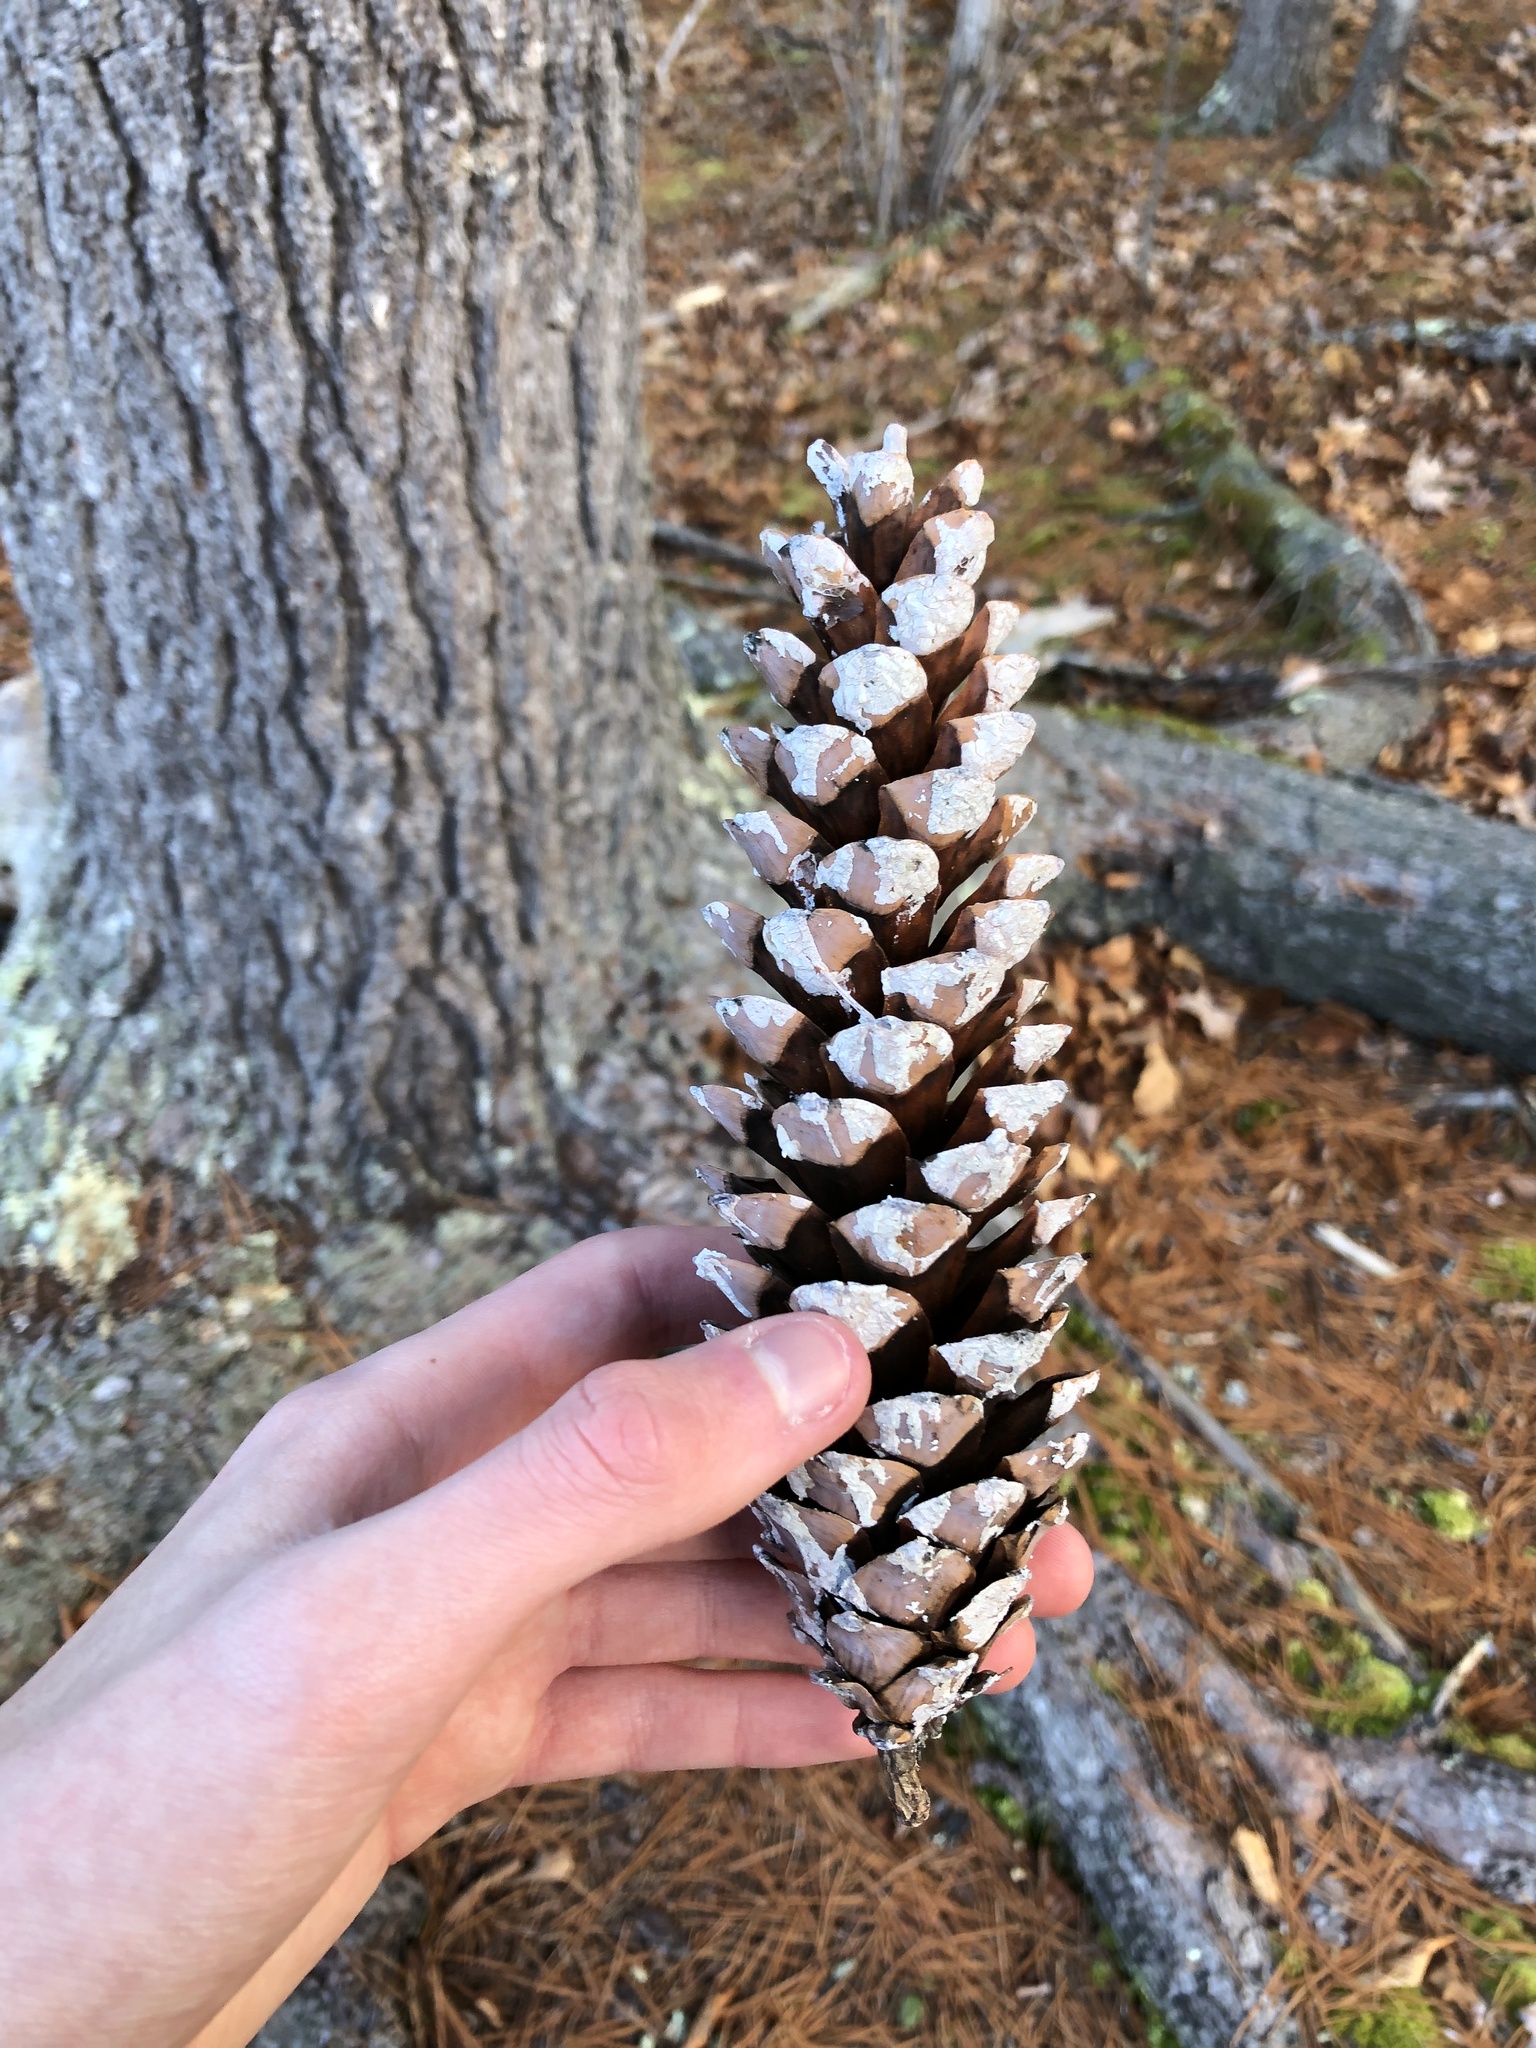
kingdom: Plantae
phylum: Tracheophyta
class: Pinopsida
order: Pinales
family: Pinaceae
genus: Pinus
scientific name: Pinus strobus
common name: Weymouth pine
